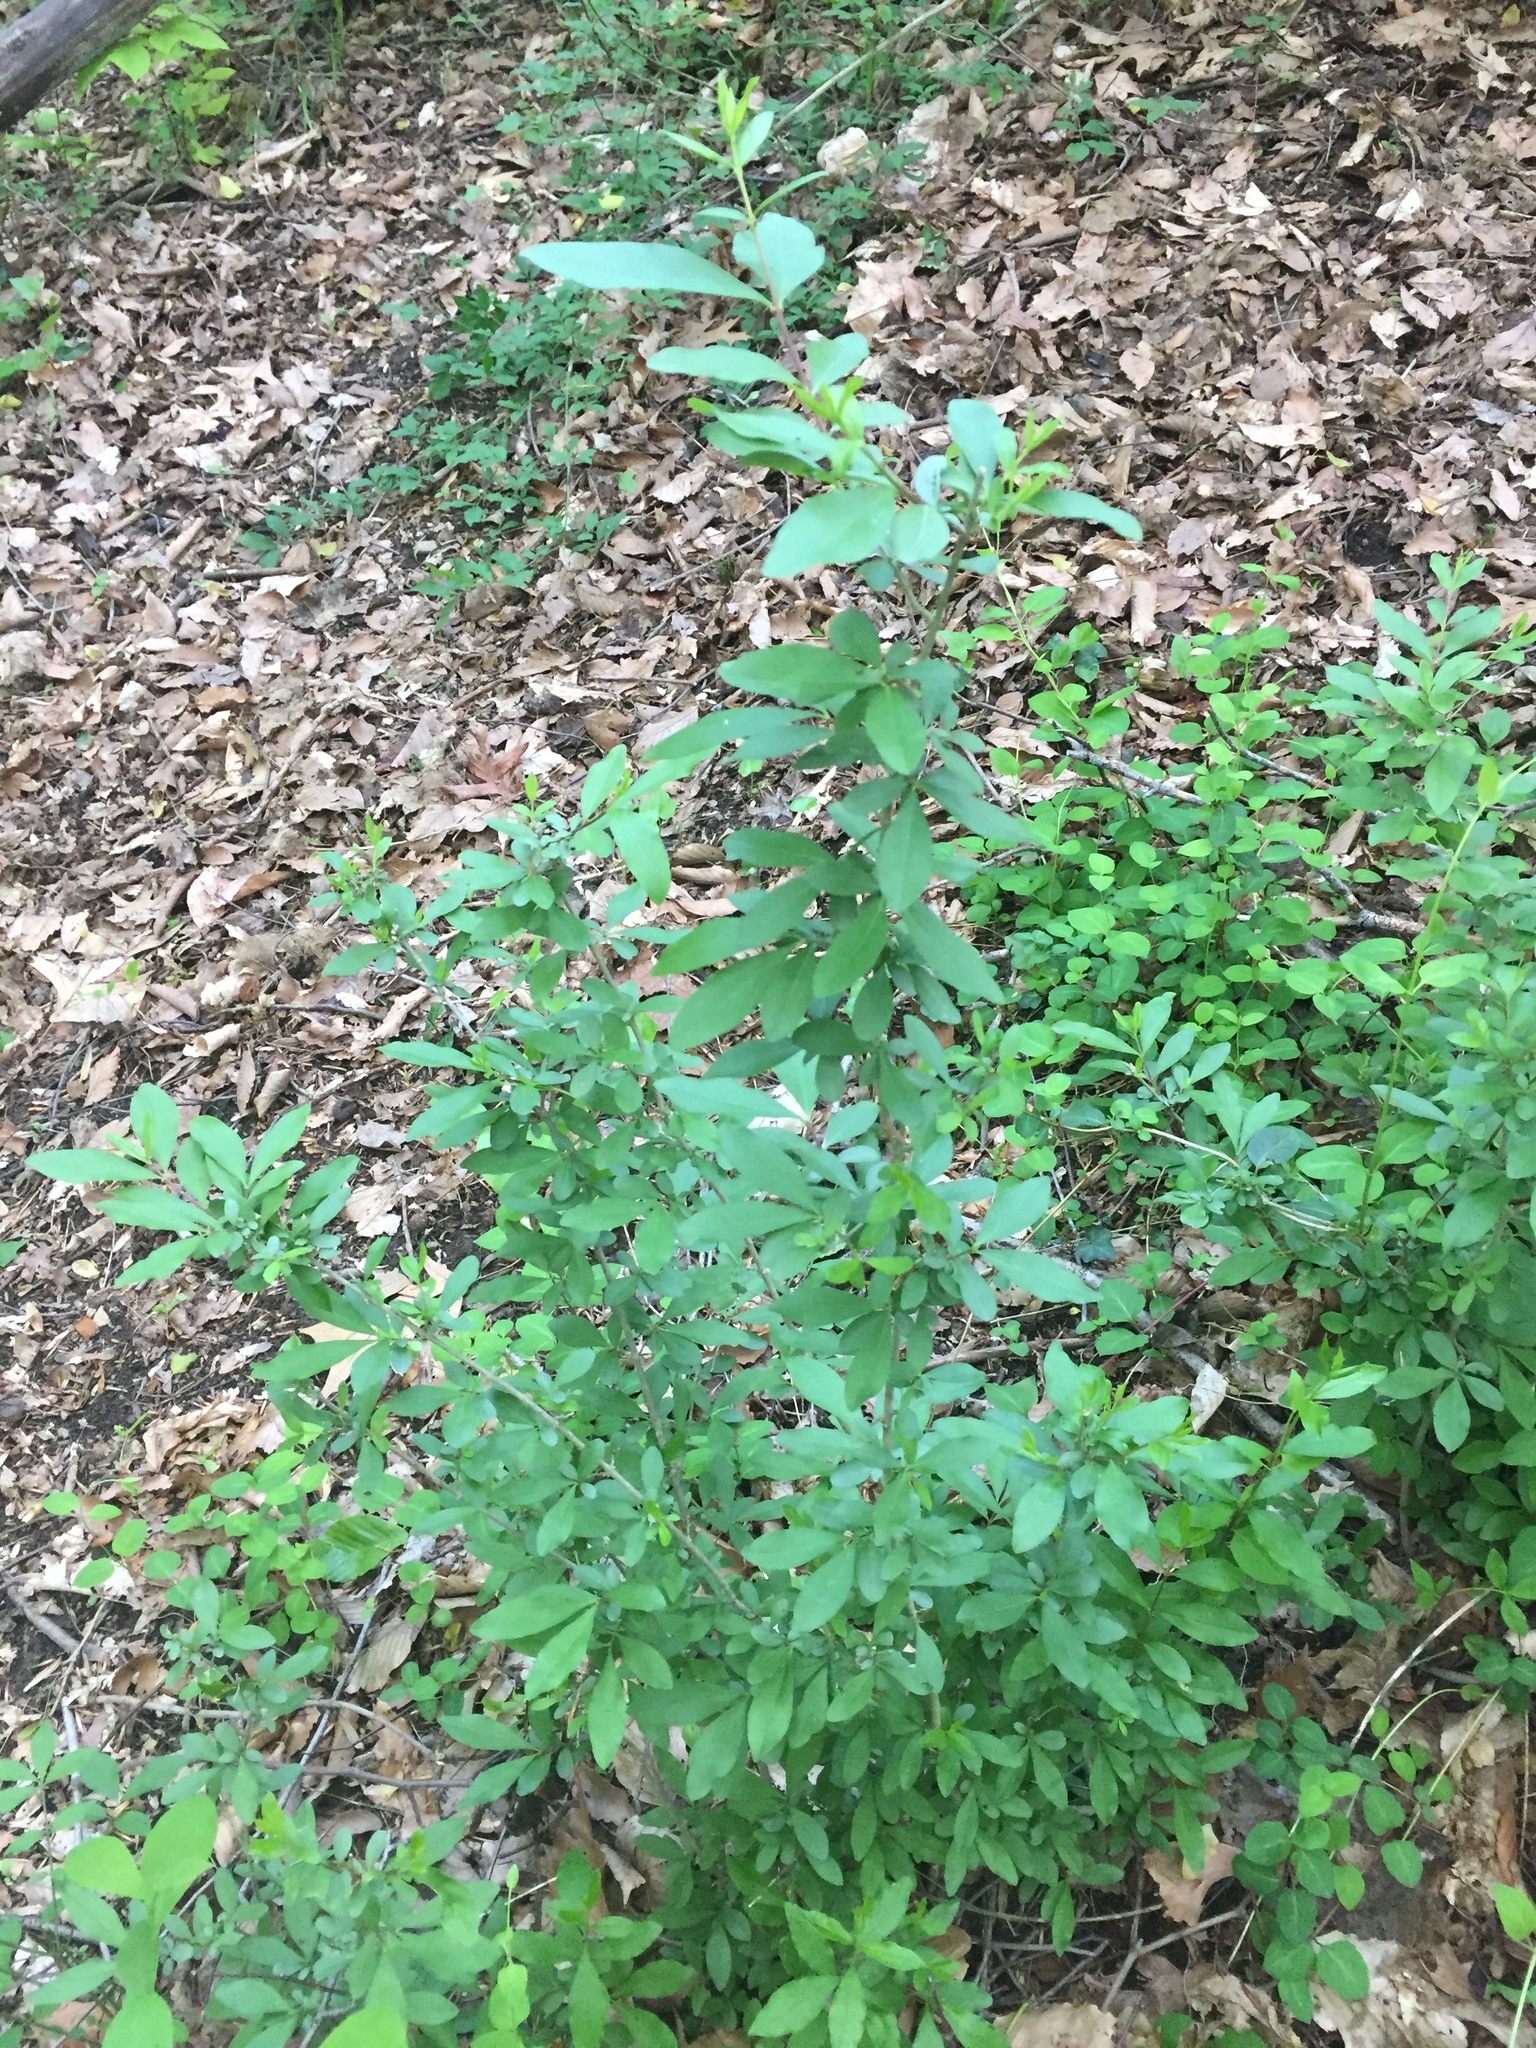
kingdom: Plantae
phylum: Tracheophyta
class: Magnoliopsida
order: Lamiales
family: Oleaceae
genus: Ligustrum
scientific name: Ligustrum obtusifolium
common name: Border privet
